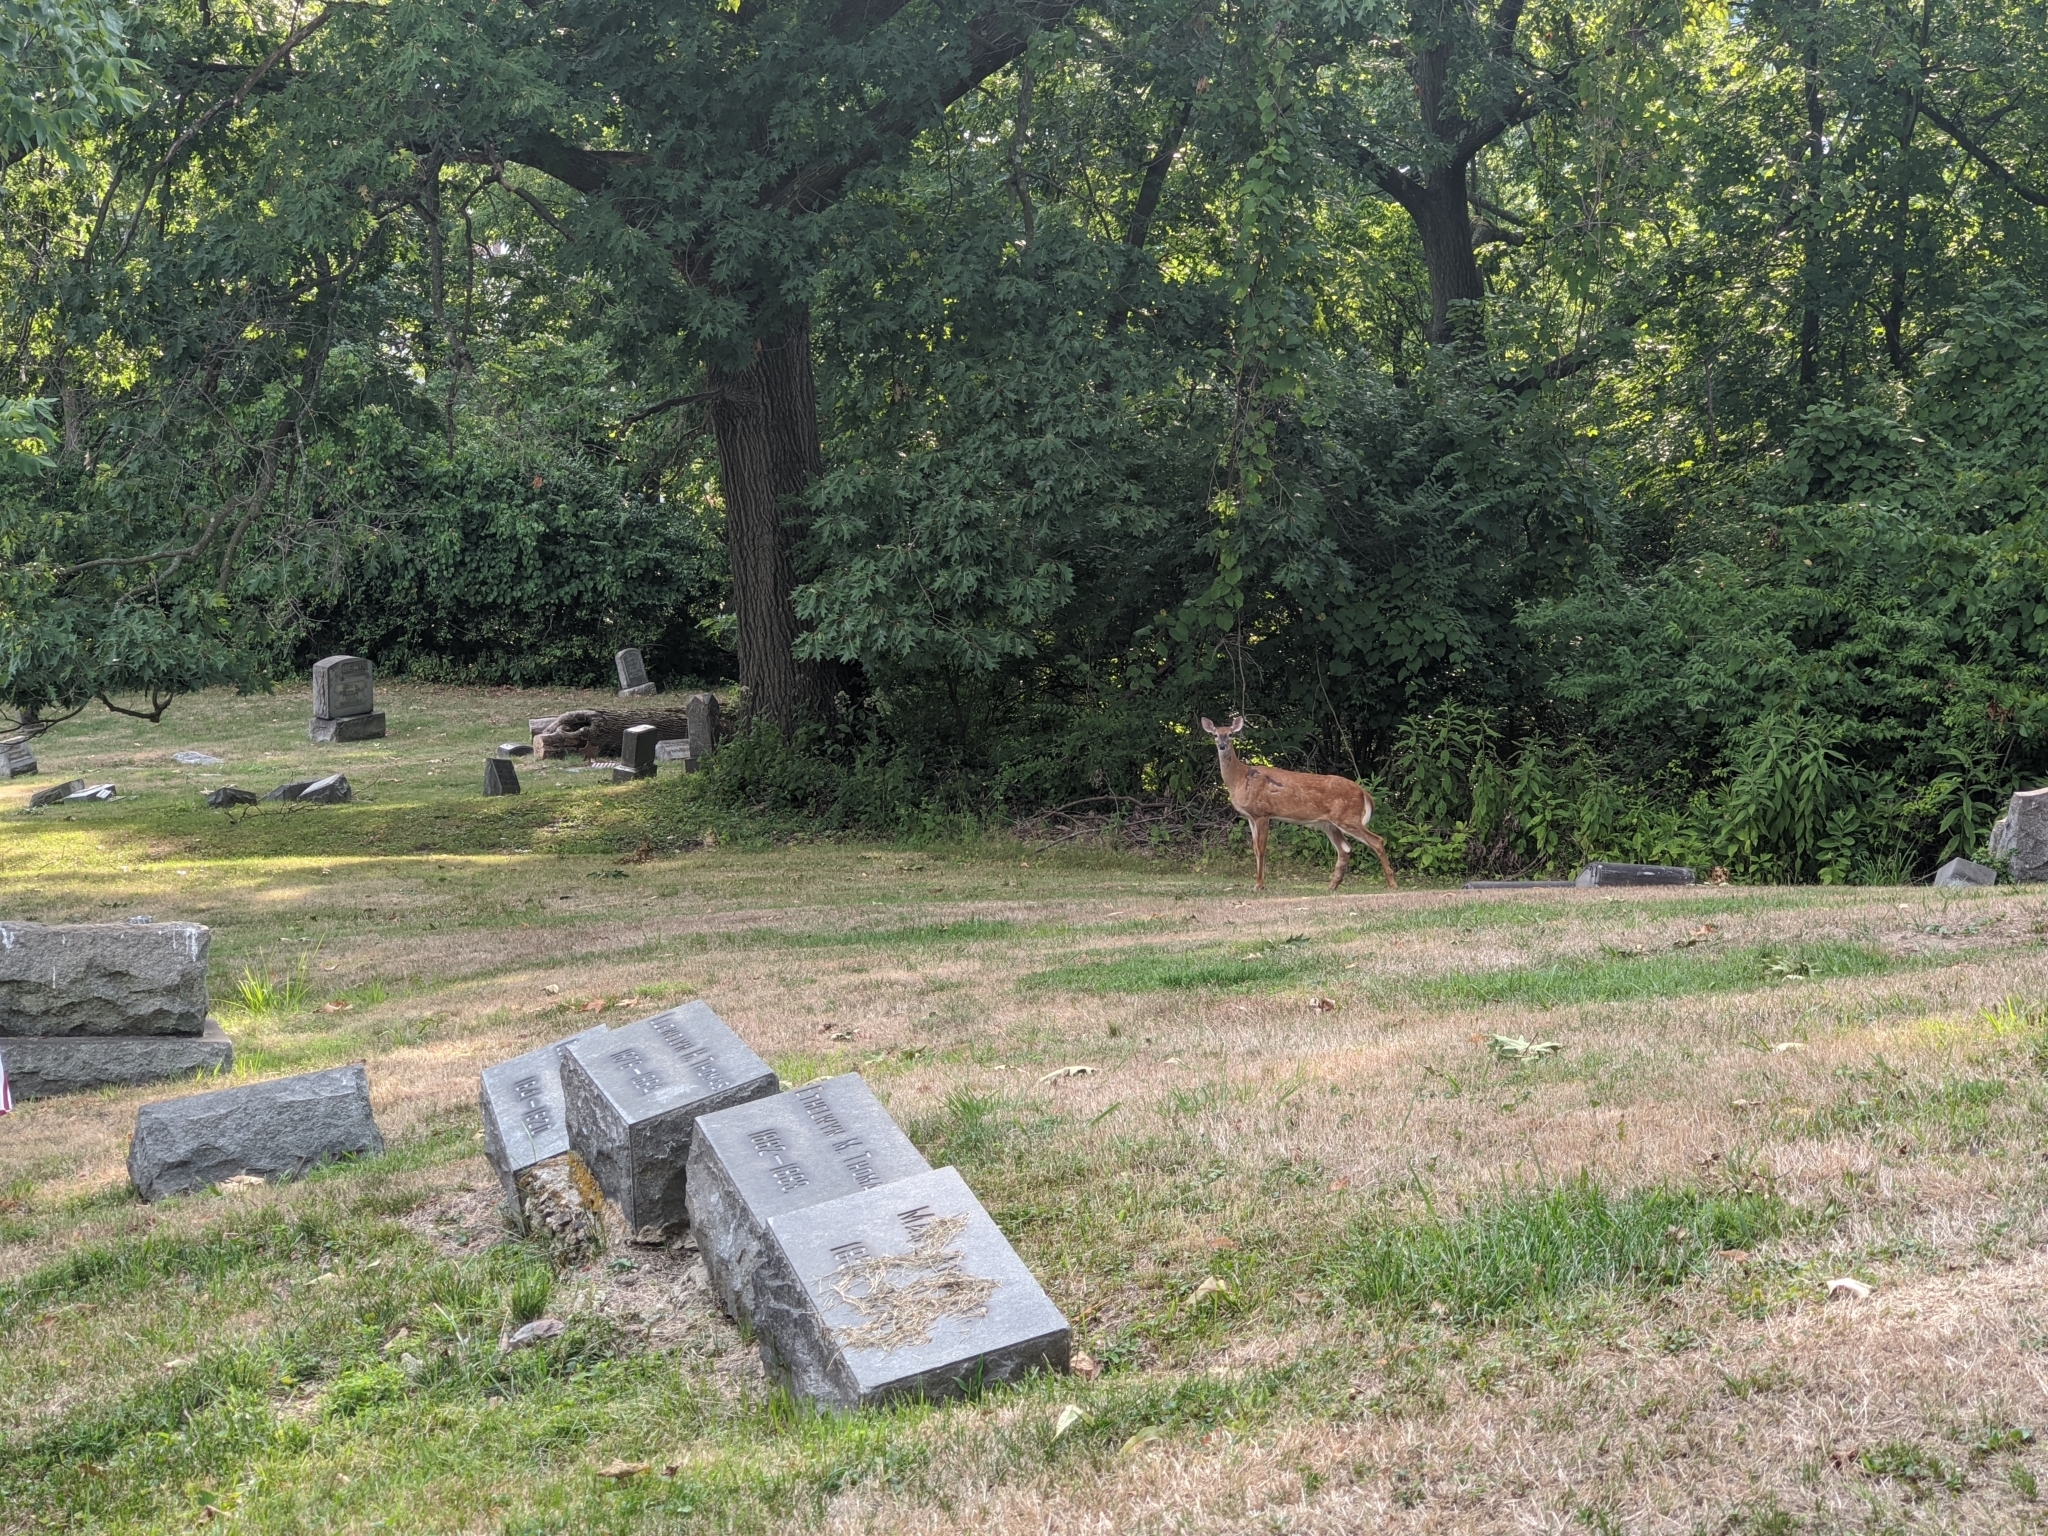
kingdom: Animalia
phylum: Chordata
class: Mammalia
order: Artiodactyla
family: Cervidae
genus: Odocoileus
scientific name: Odocoileus virginianus
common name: White-tailed deer
